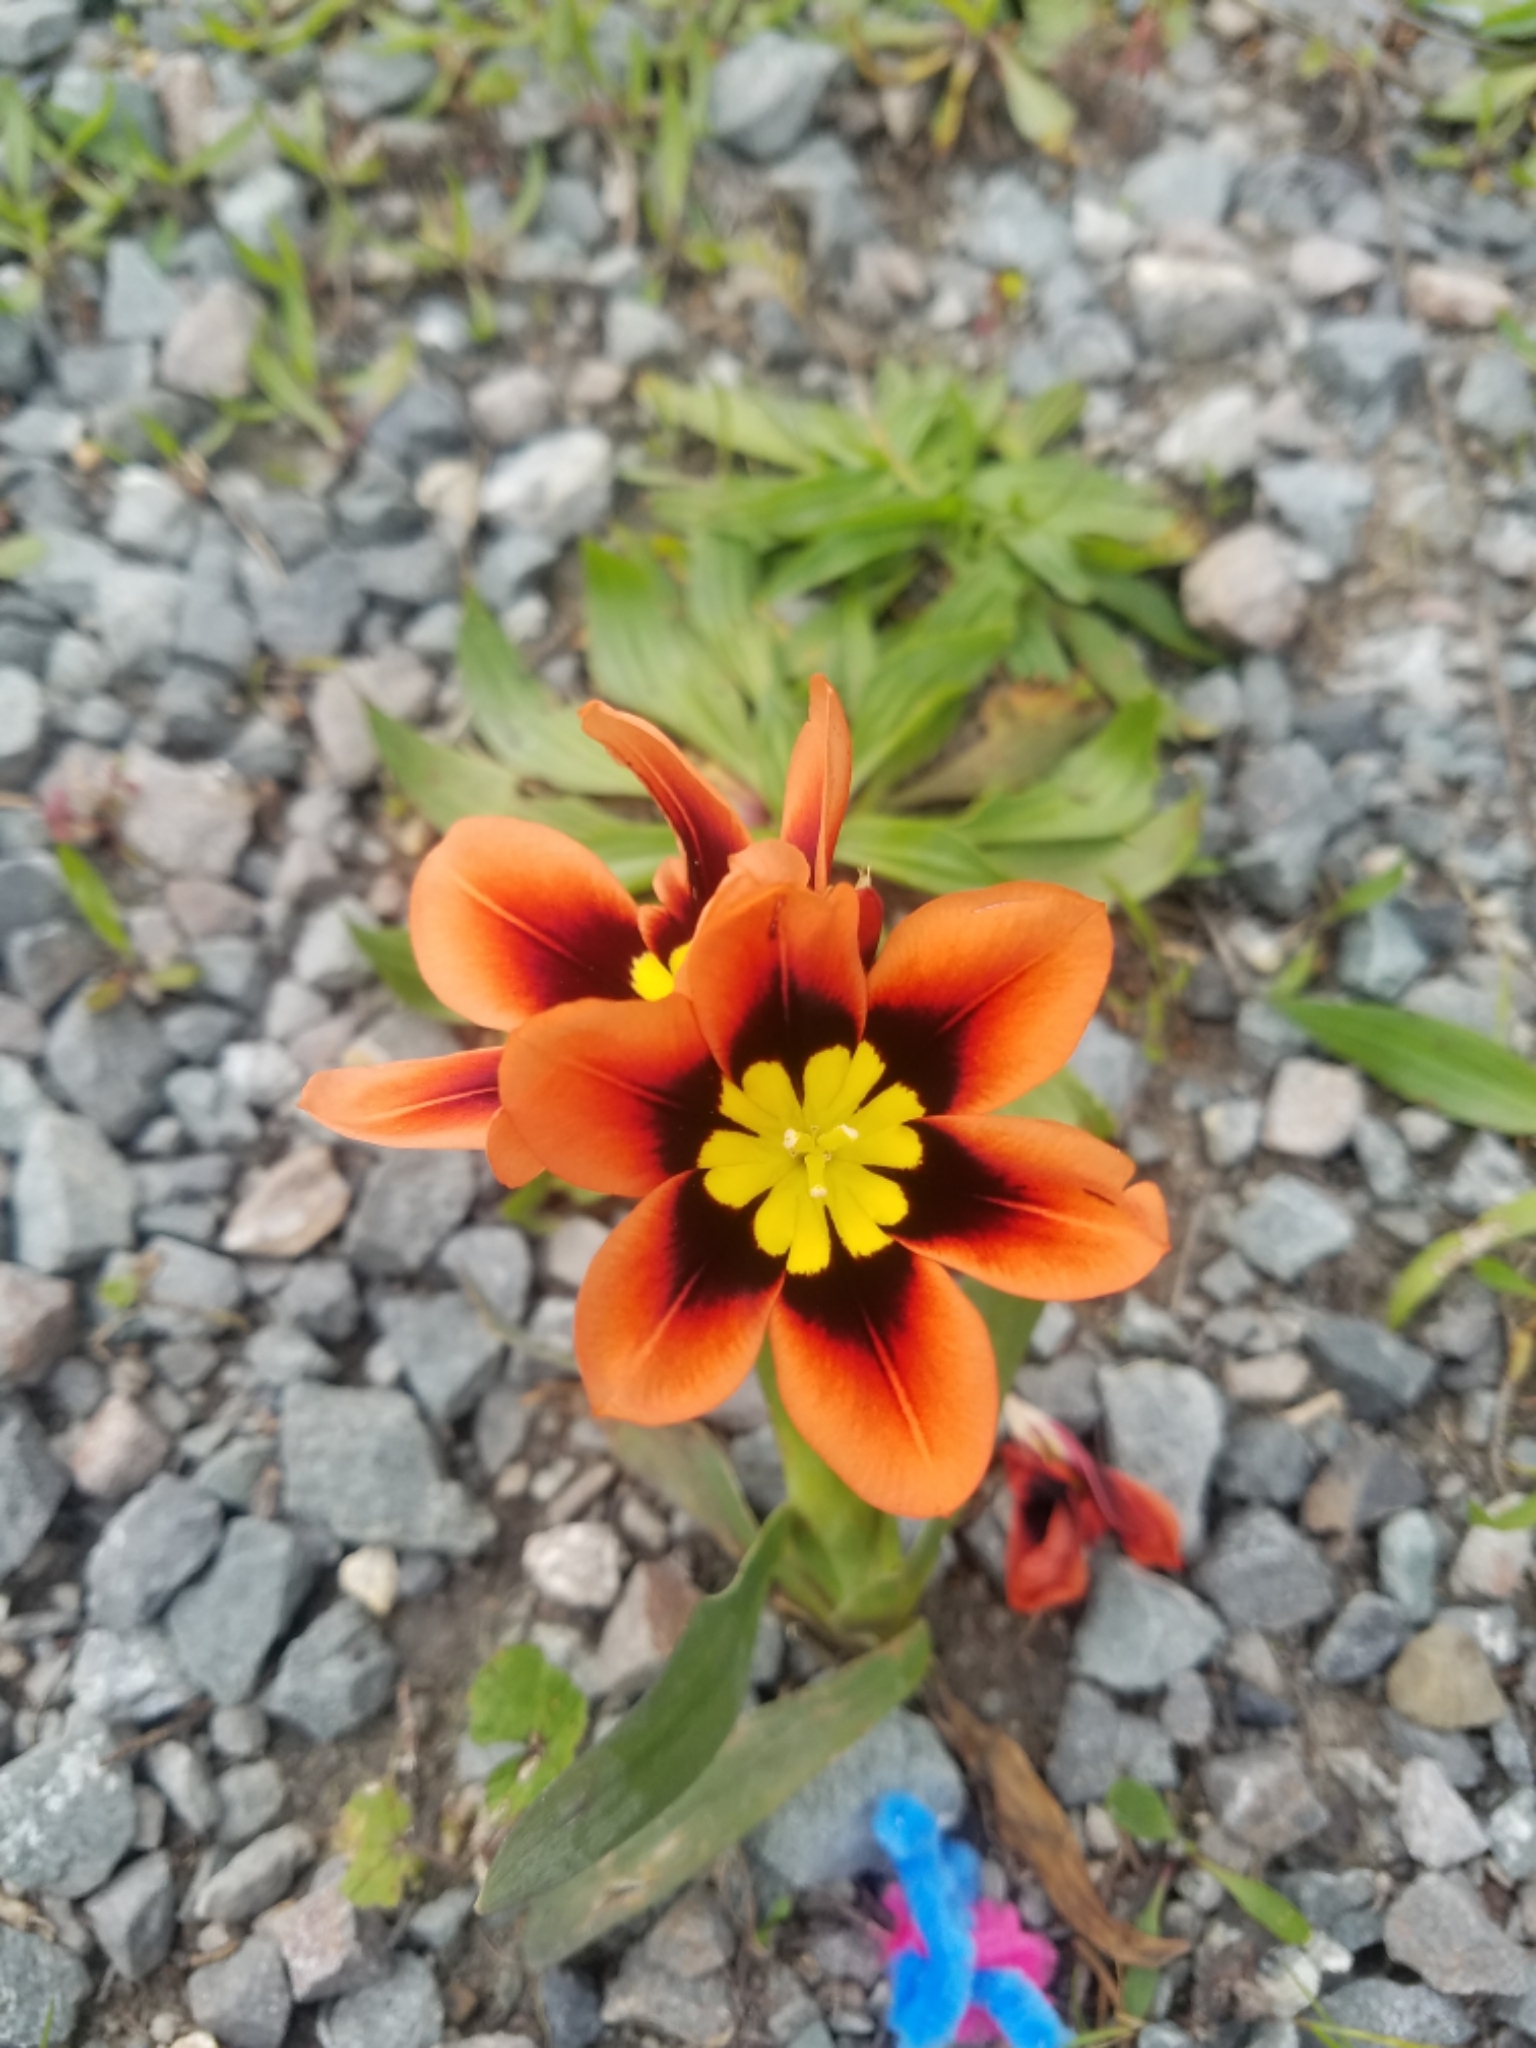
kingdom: Plantae
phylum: Tracheophyta
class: Liliopsida
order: Asparagales
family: Iridaceae
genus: Sparaxis
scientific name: Sparaxis tricolor
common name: Wandflower
